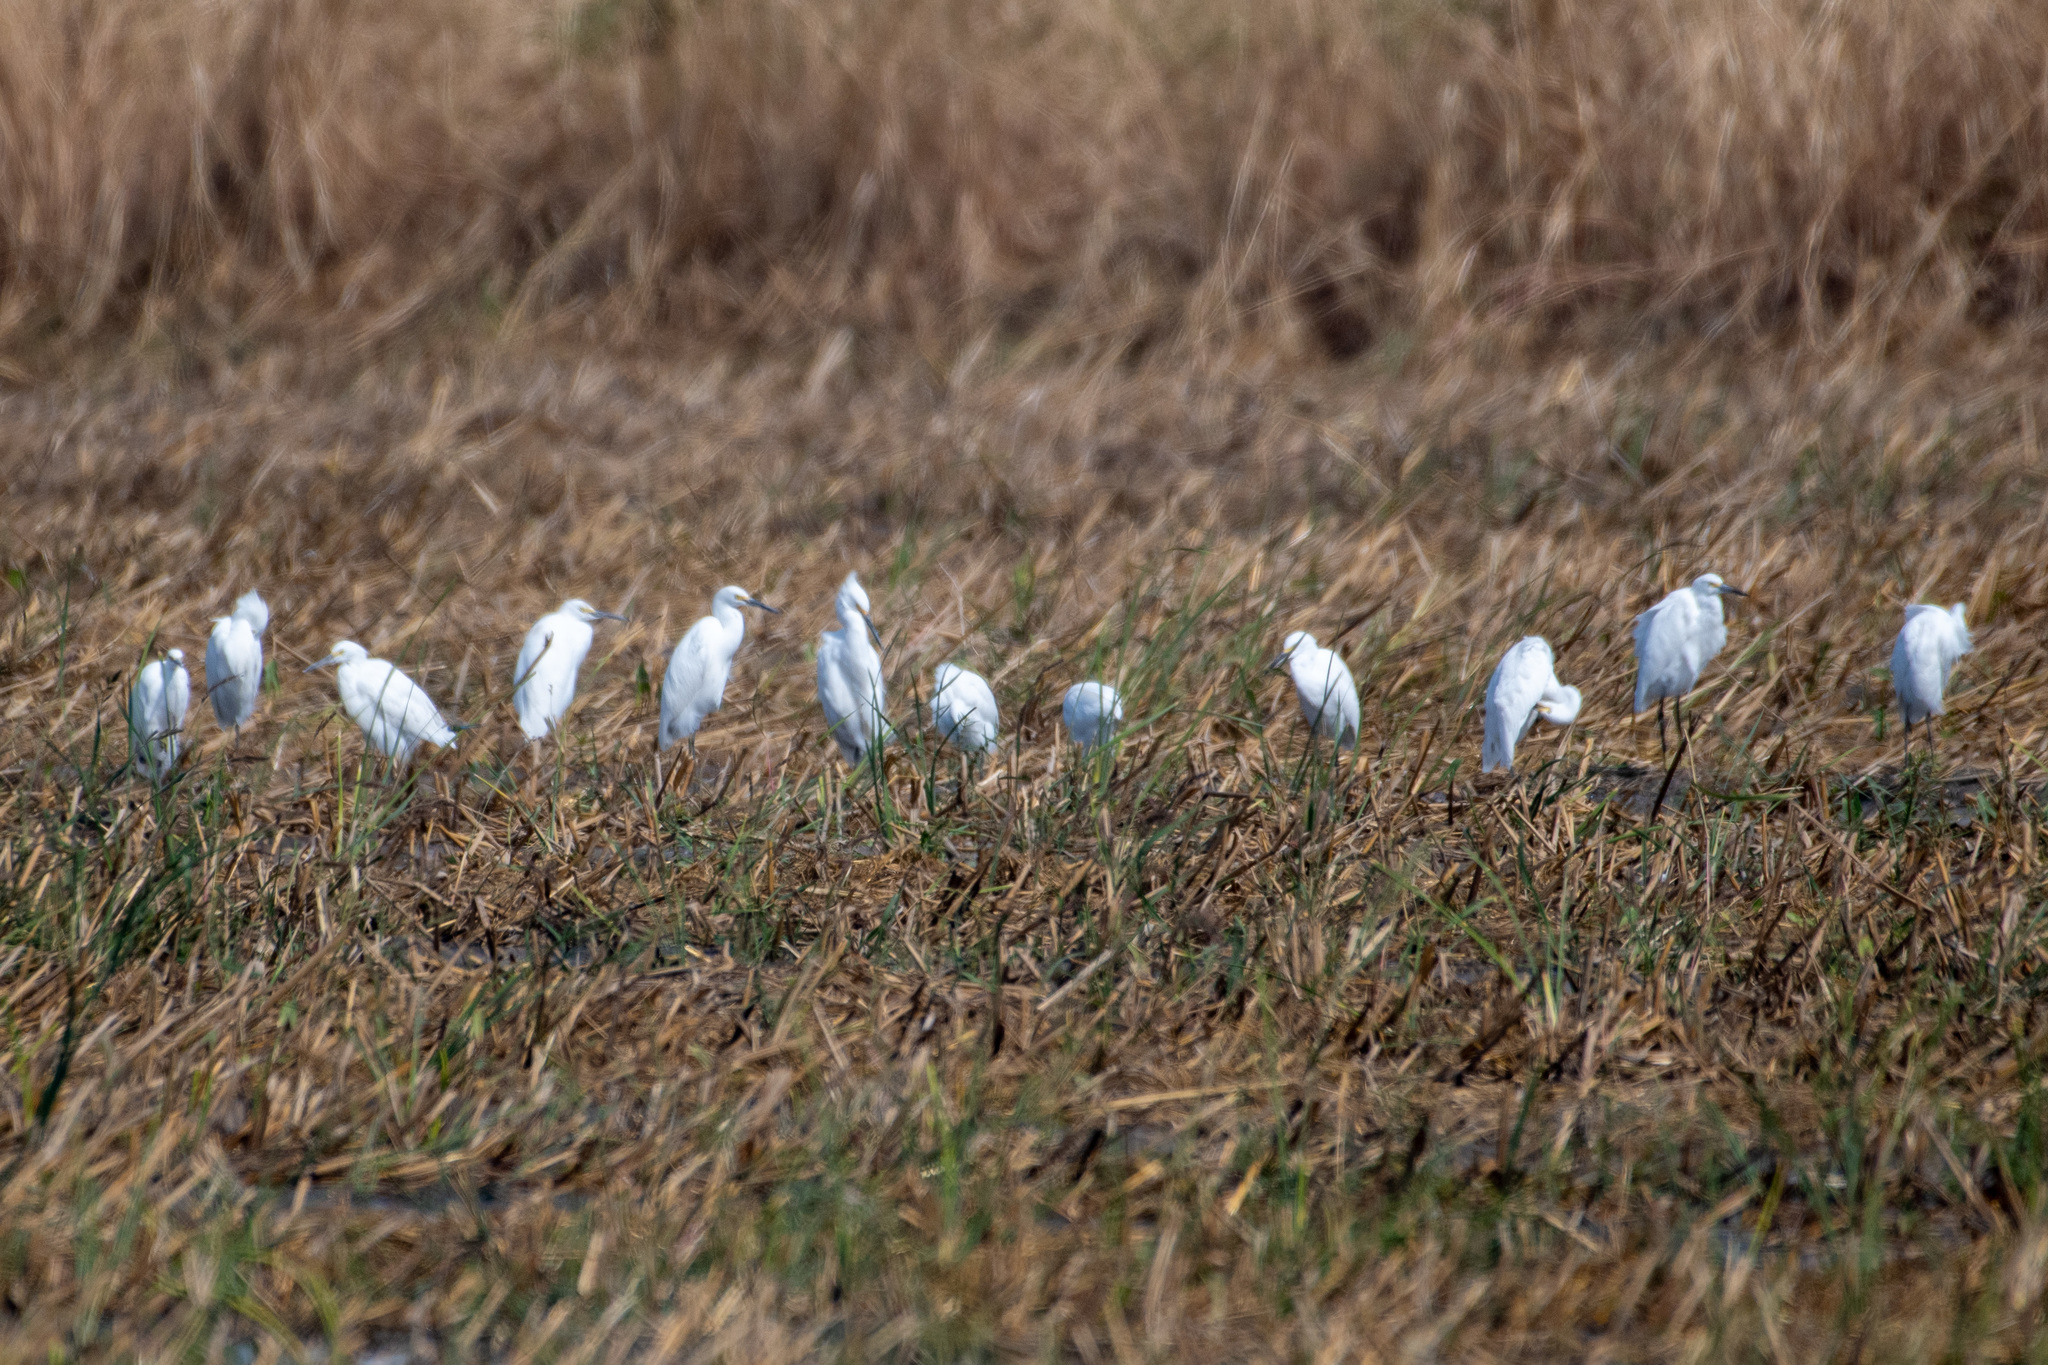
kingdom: Animalia
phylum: Chordata
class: Aves
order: Pelecaniformes
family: Ardeidae
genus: Egretta
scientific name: Egretta thula
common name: Snowy egret
